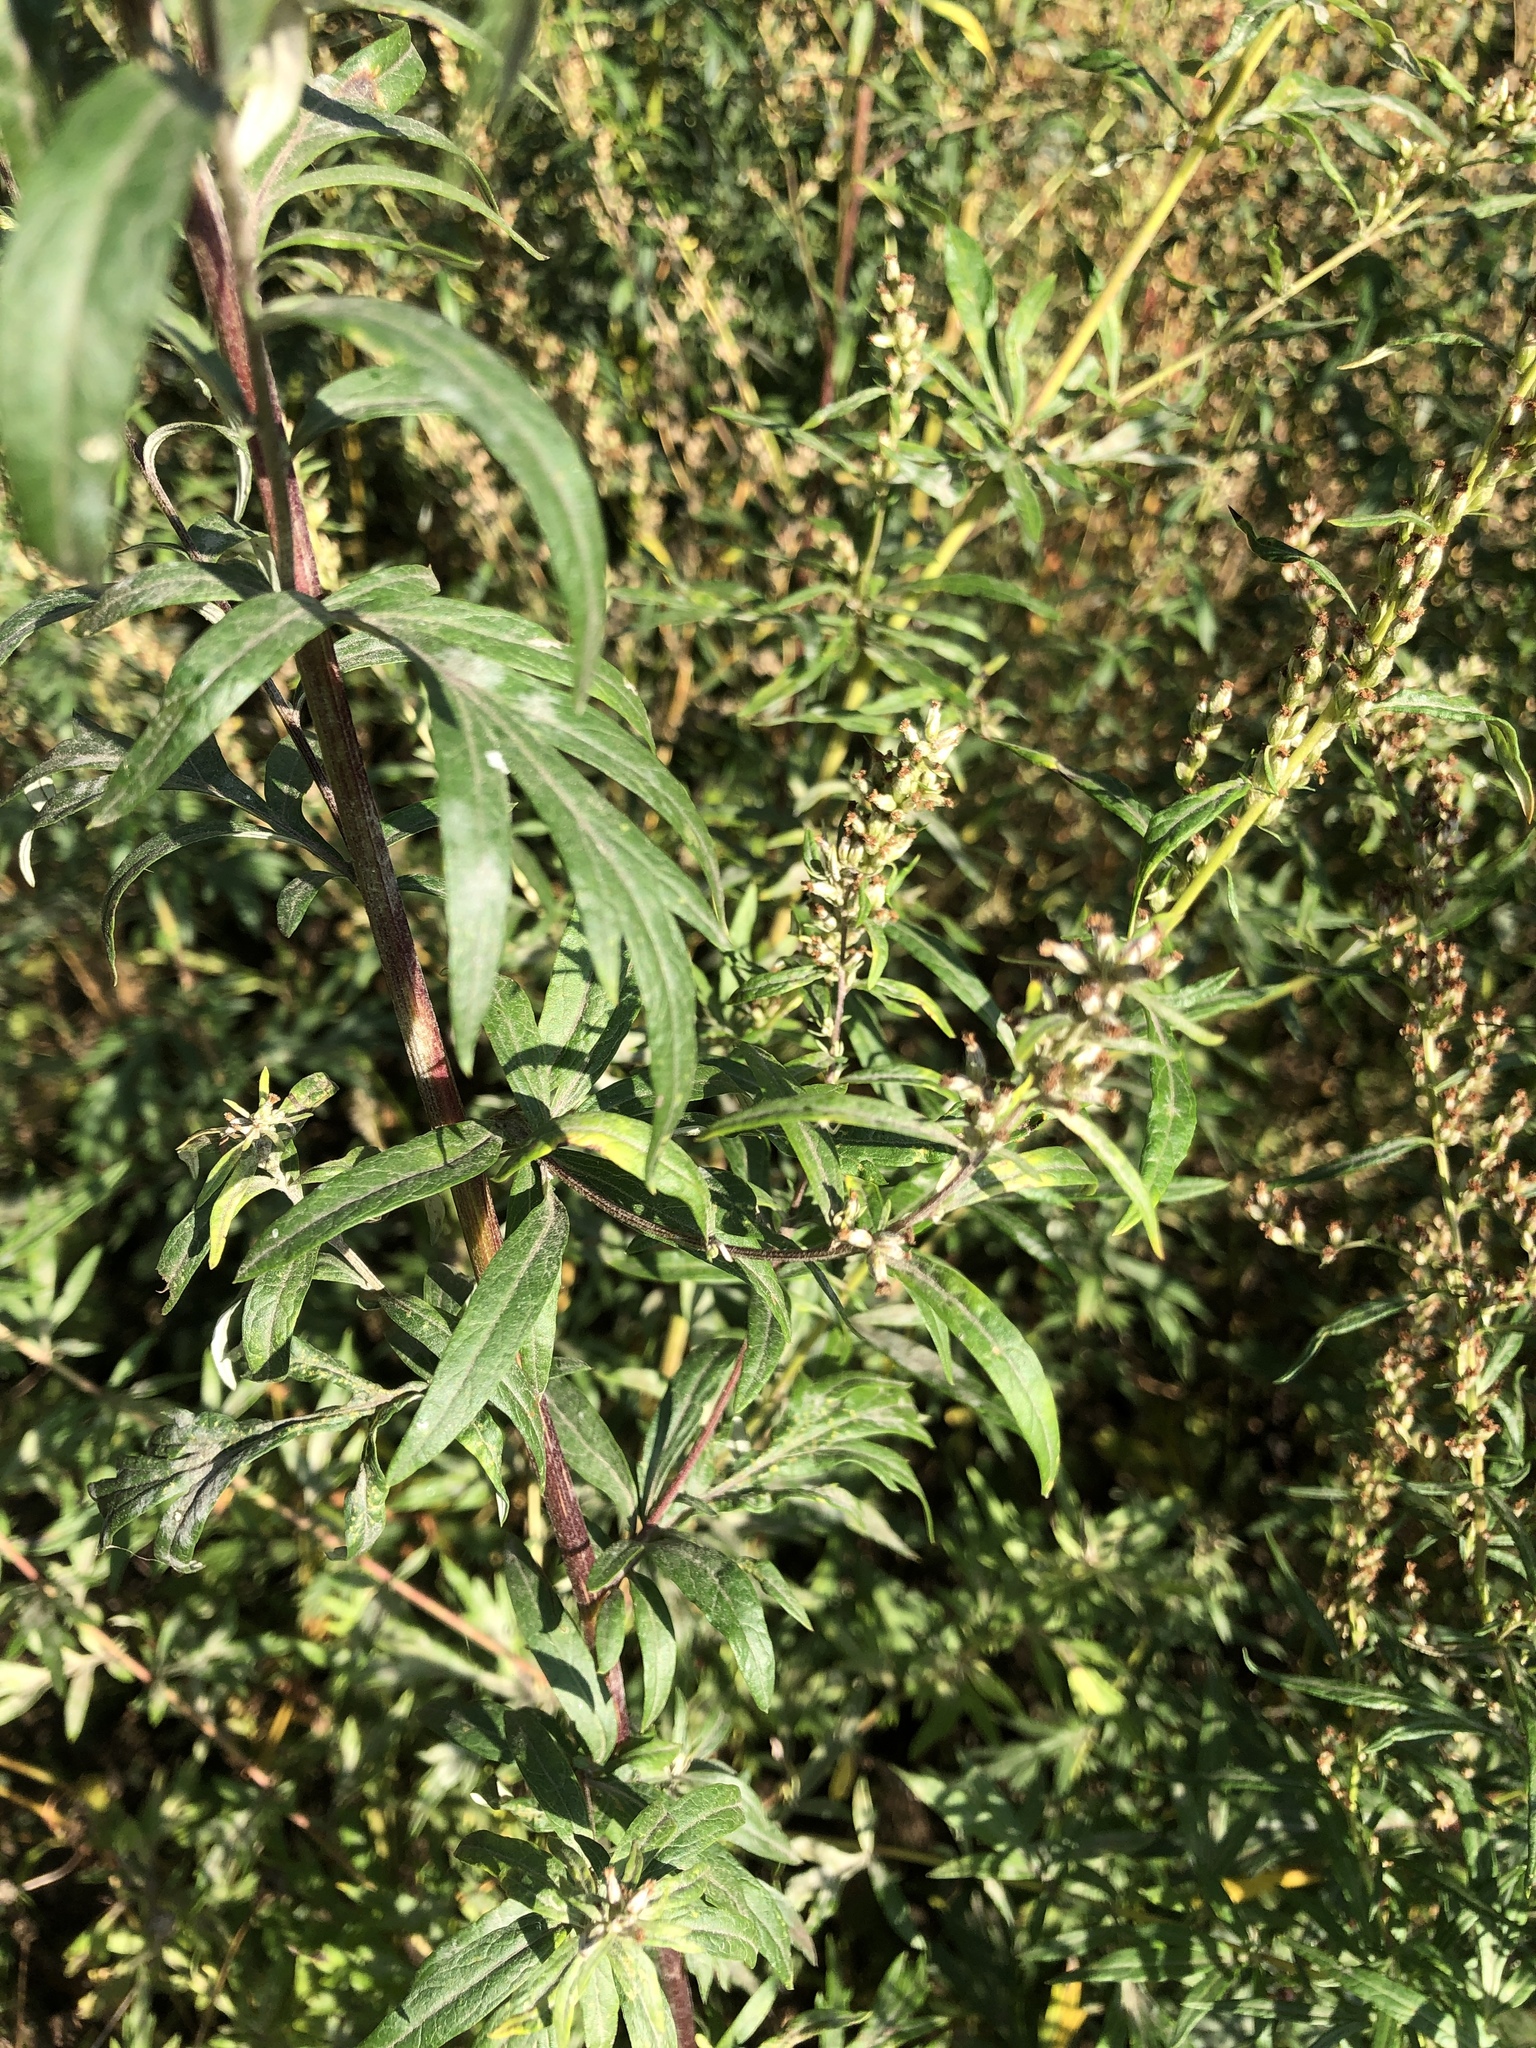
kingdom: Plantae
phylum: Tracheophyta
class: Magnoliopsida
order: Asterales
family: Asteraceae
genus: Artemisia
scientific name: Artemisia vulgaris
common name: Mugwort
